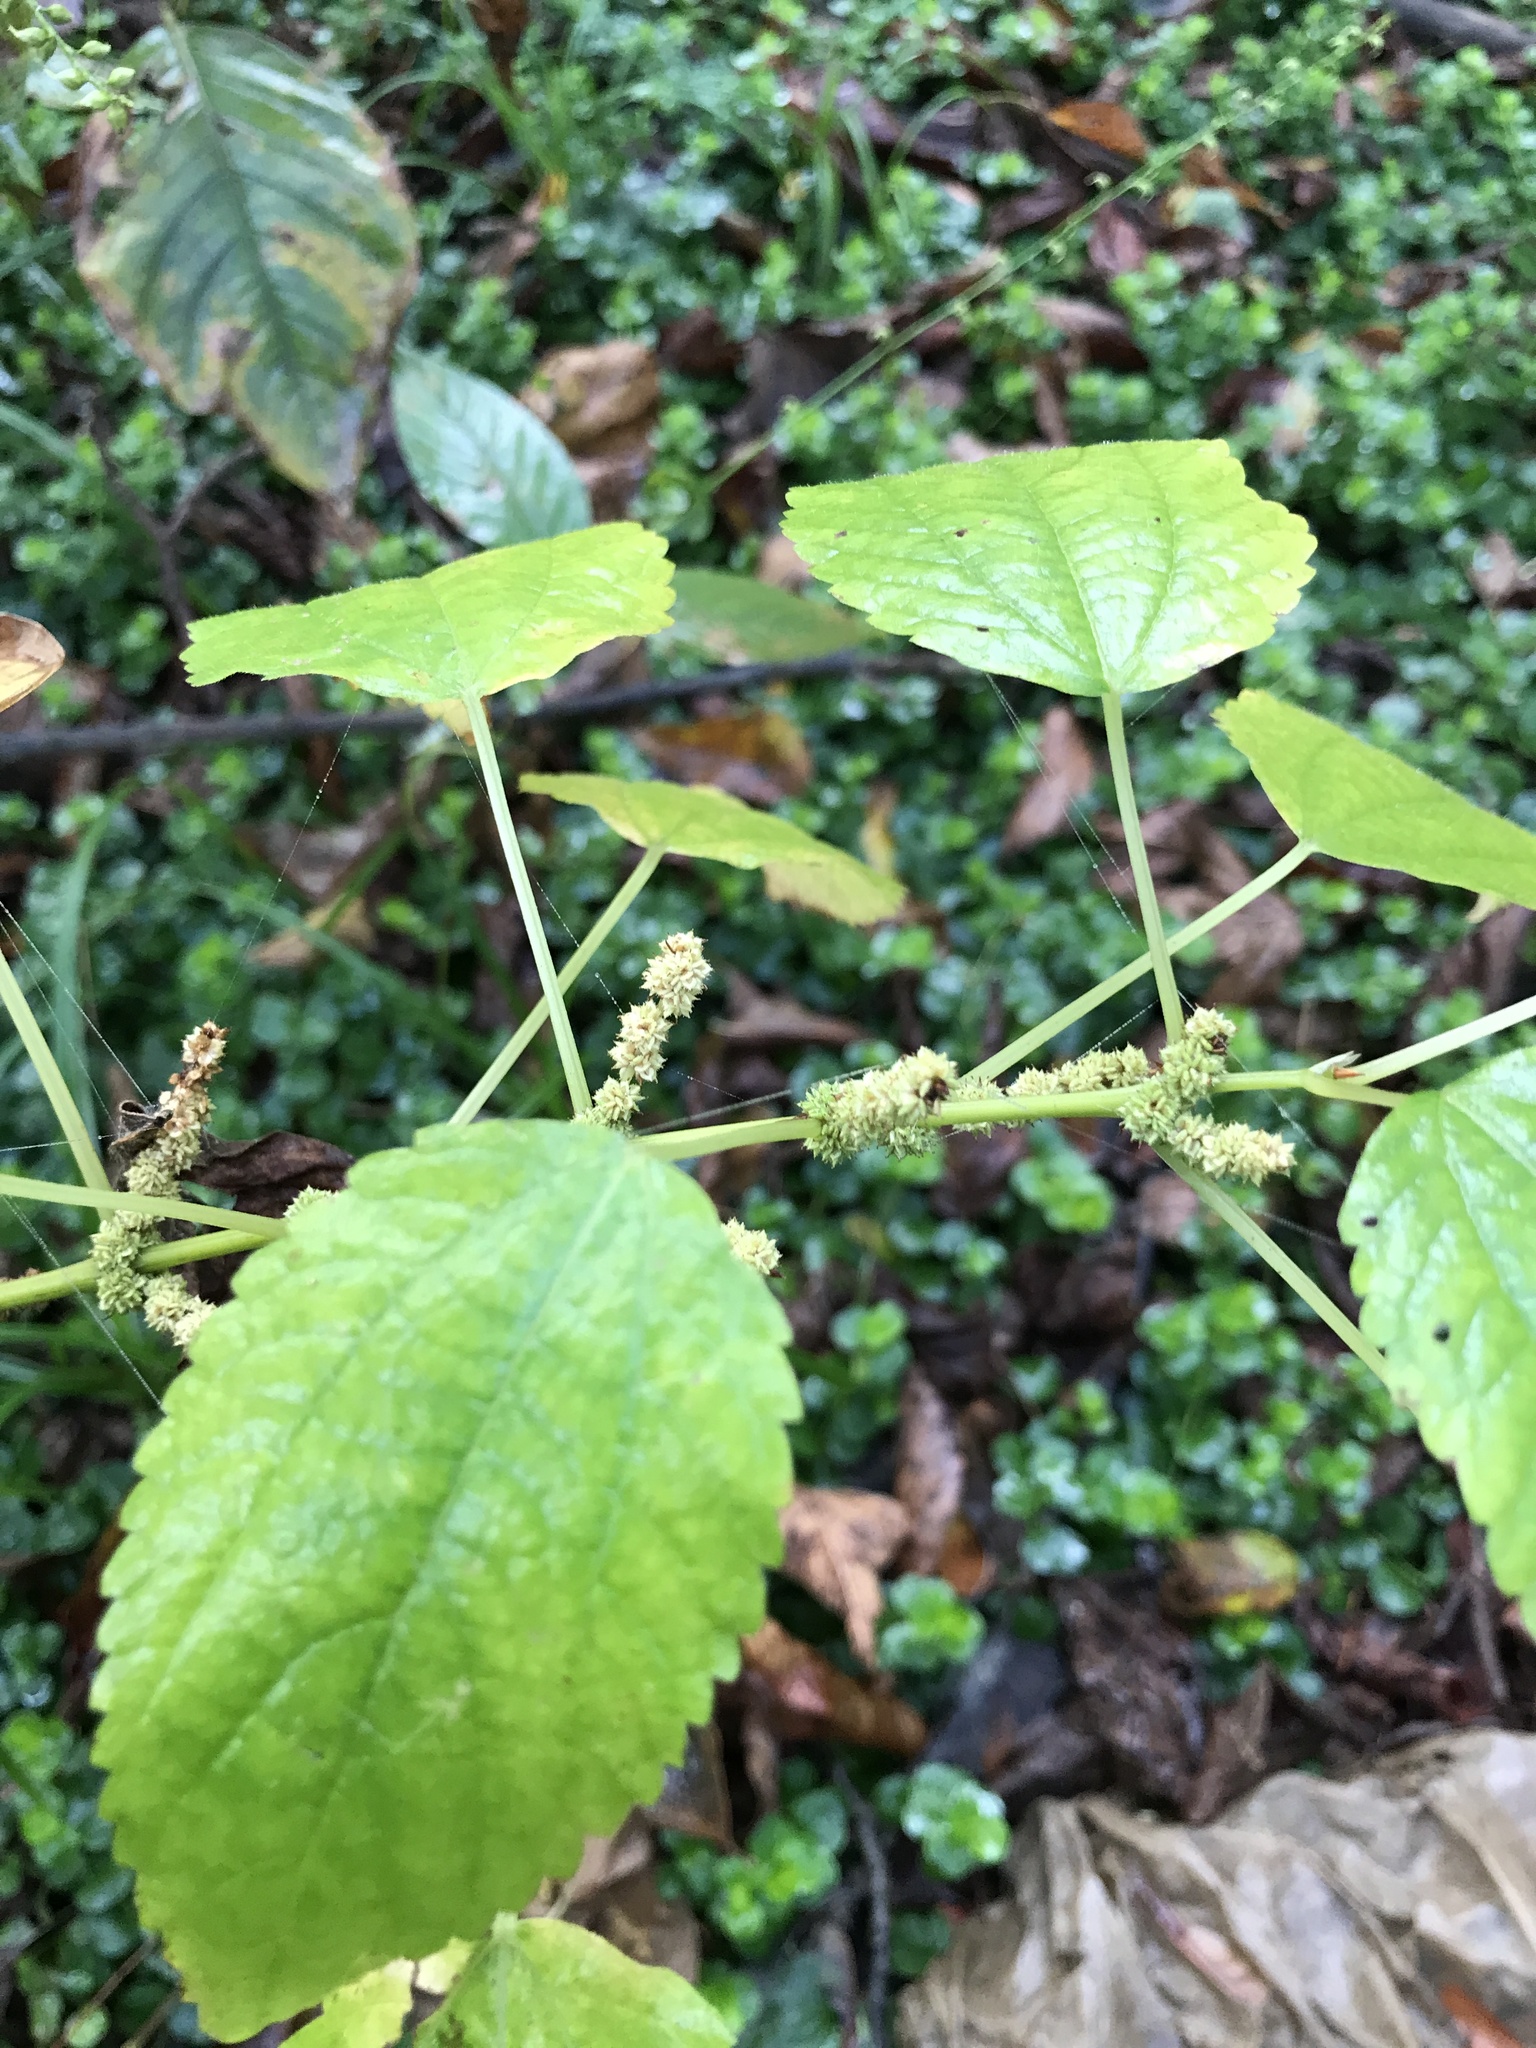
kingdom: Plantae
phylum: Tracheophyta
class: Magnoliopsida
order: Rosales
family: Urticaceae
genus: Boehmeria
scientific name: Boehmeria cylindrica
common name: Bog-hemp
